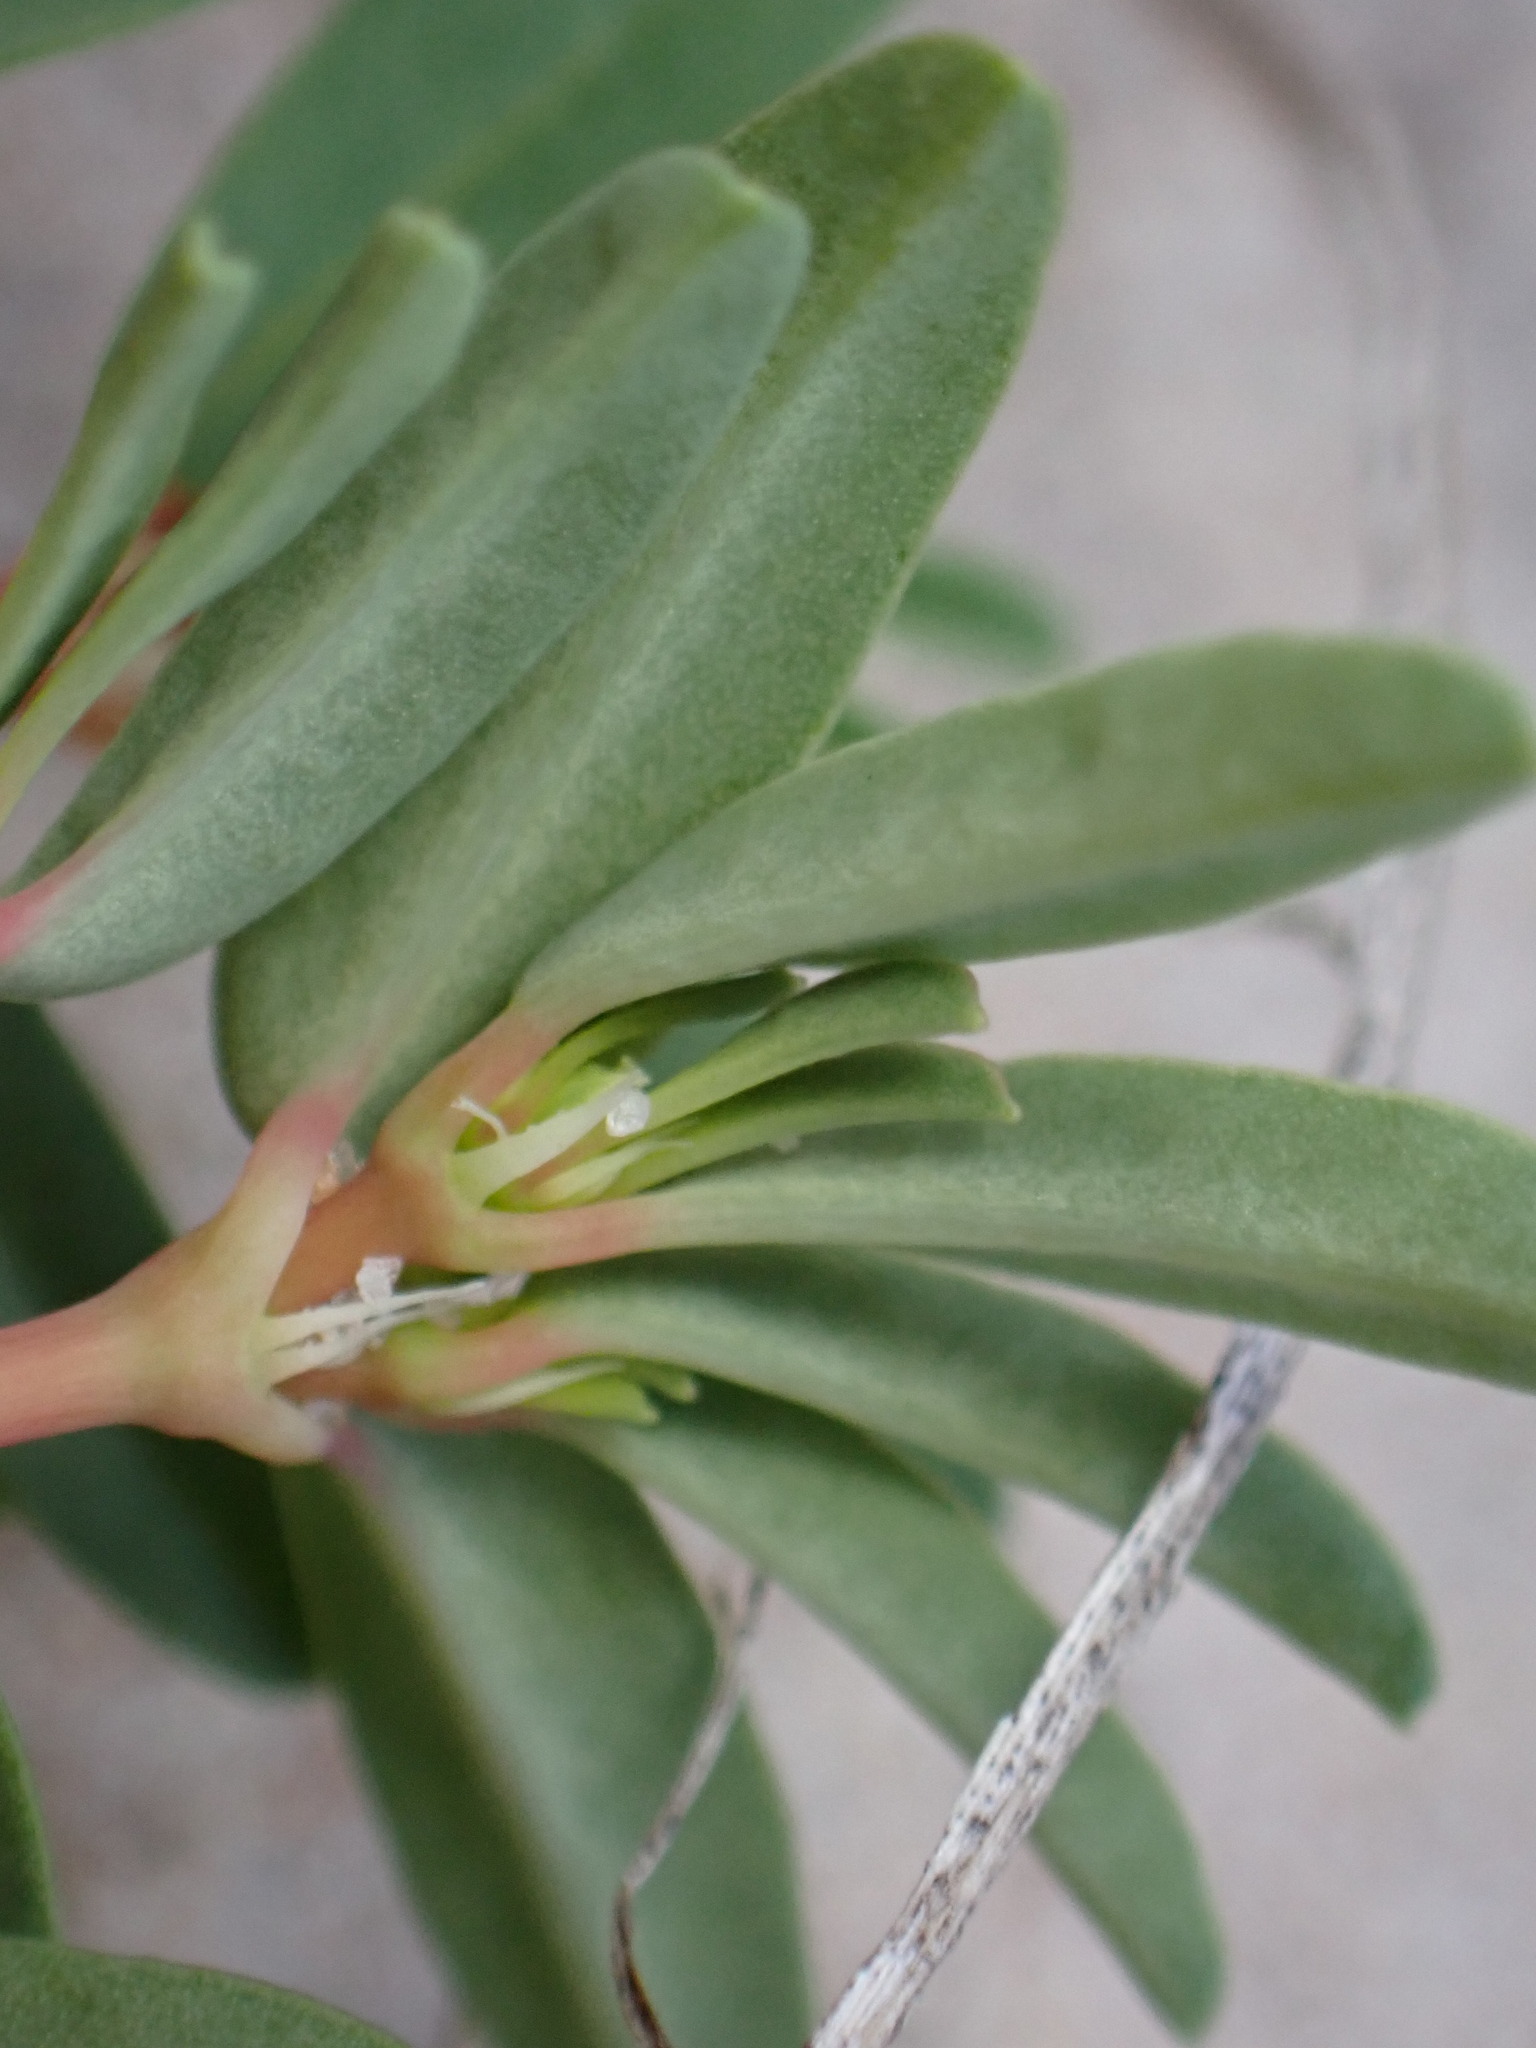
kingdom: Plantae
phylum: Tracheophyta
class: Magnoliopsida
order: Malpighiales
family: Euphorbiaceae
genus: Euphorbia
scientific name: Euphorbia polygonifolia
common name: Knotweed spurge
